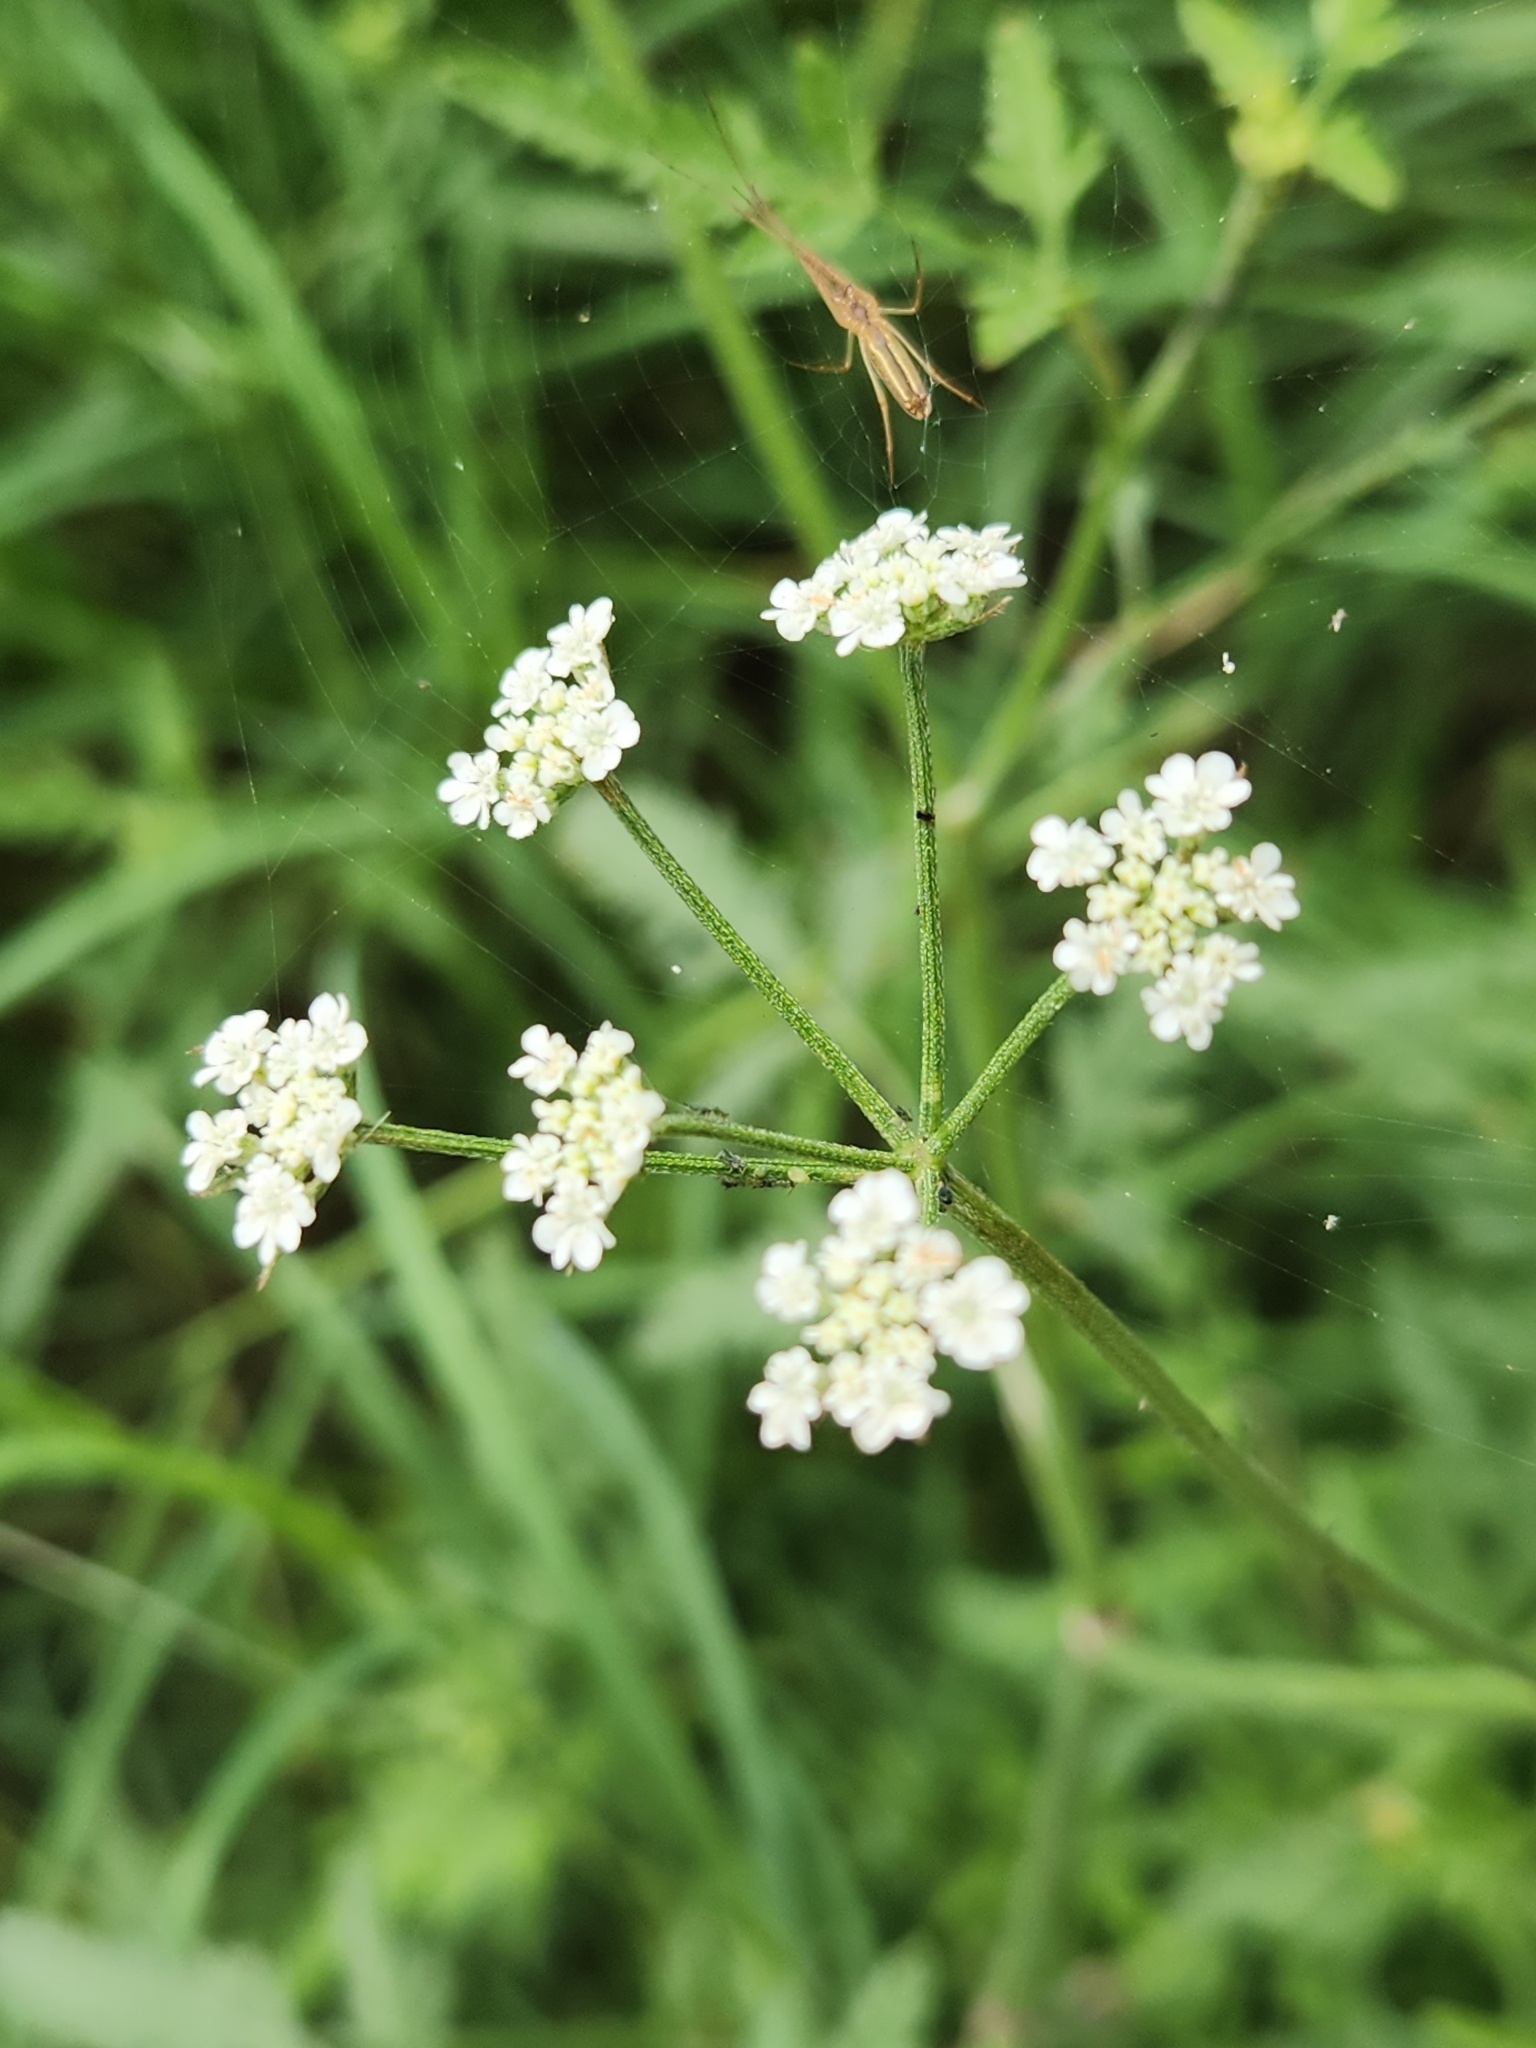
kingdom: Plantae
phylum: Tracheophyta
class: Magnoliopsida
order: Apiales
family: Apiaceae
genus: Torilis
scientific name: Torilis arvensis
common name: Spreading hedge-parsley
